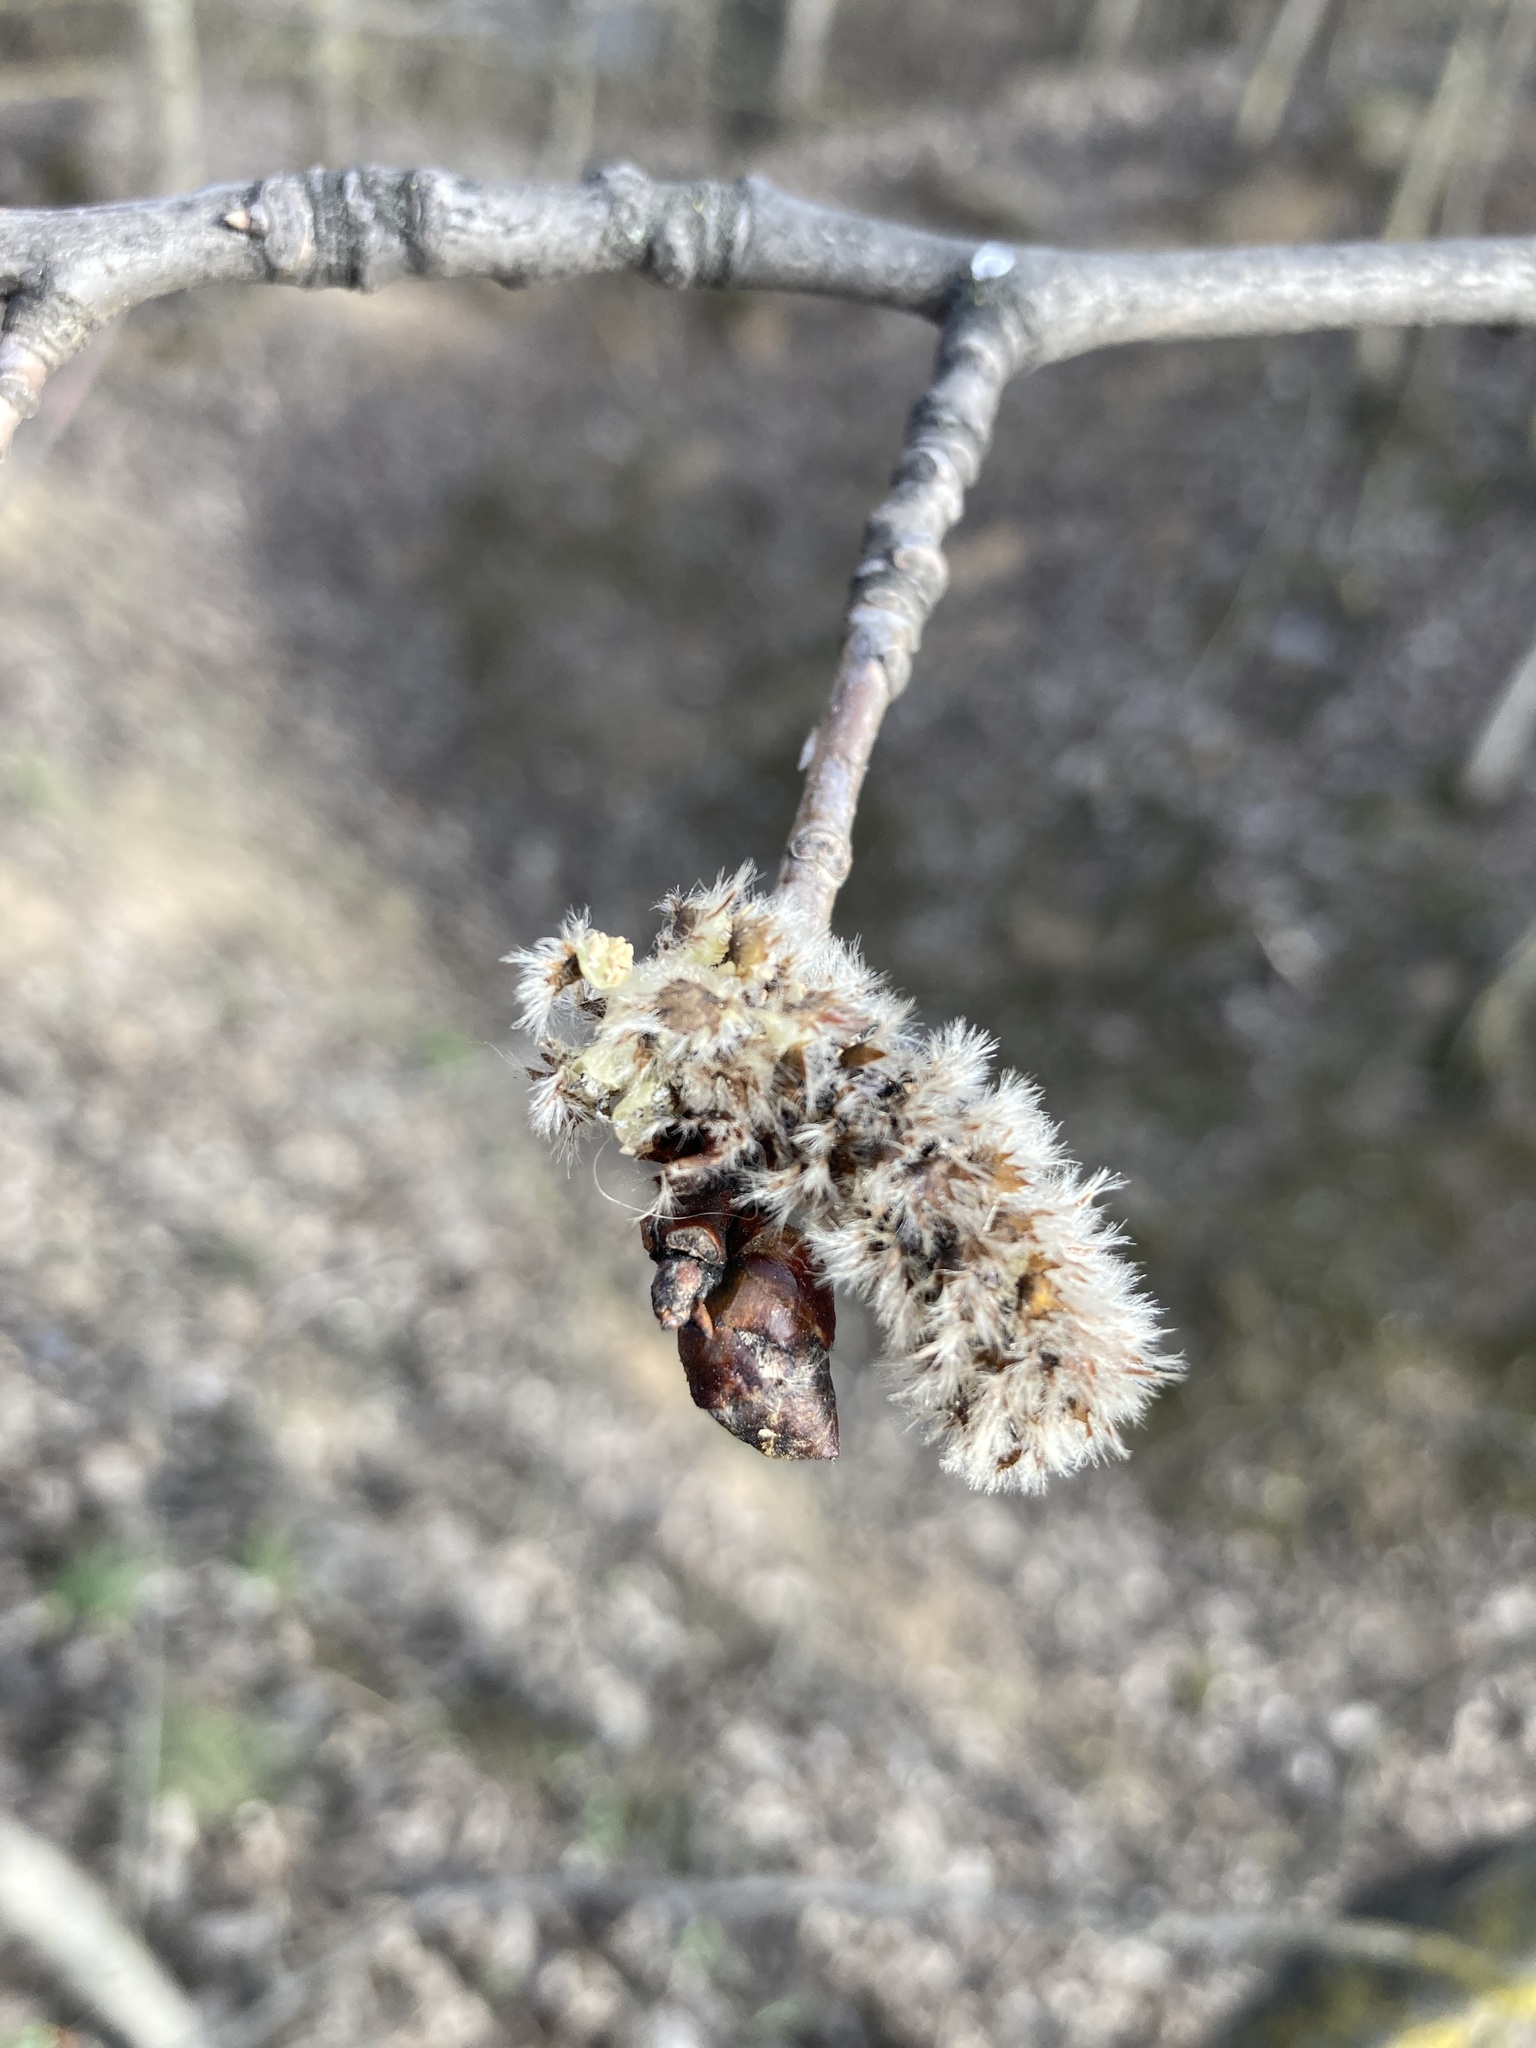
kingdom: Plantae
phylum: Tracheophyta
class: Magnoliopsida
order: Malpighiales
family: Salicaceae
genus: Populus
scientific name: Populus tremula
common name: European aspen
